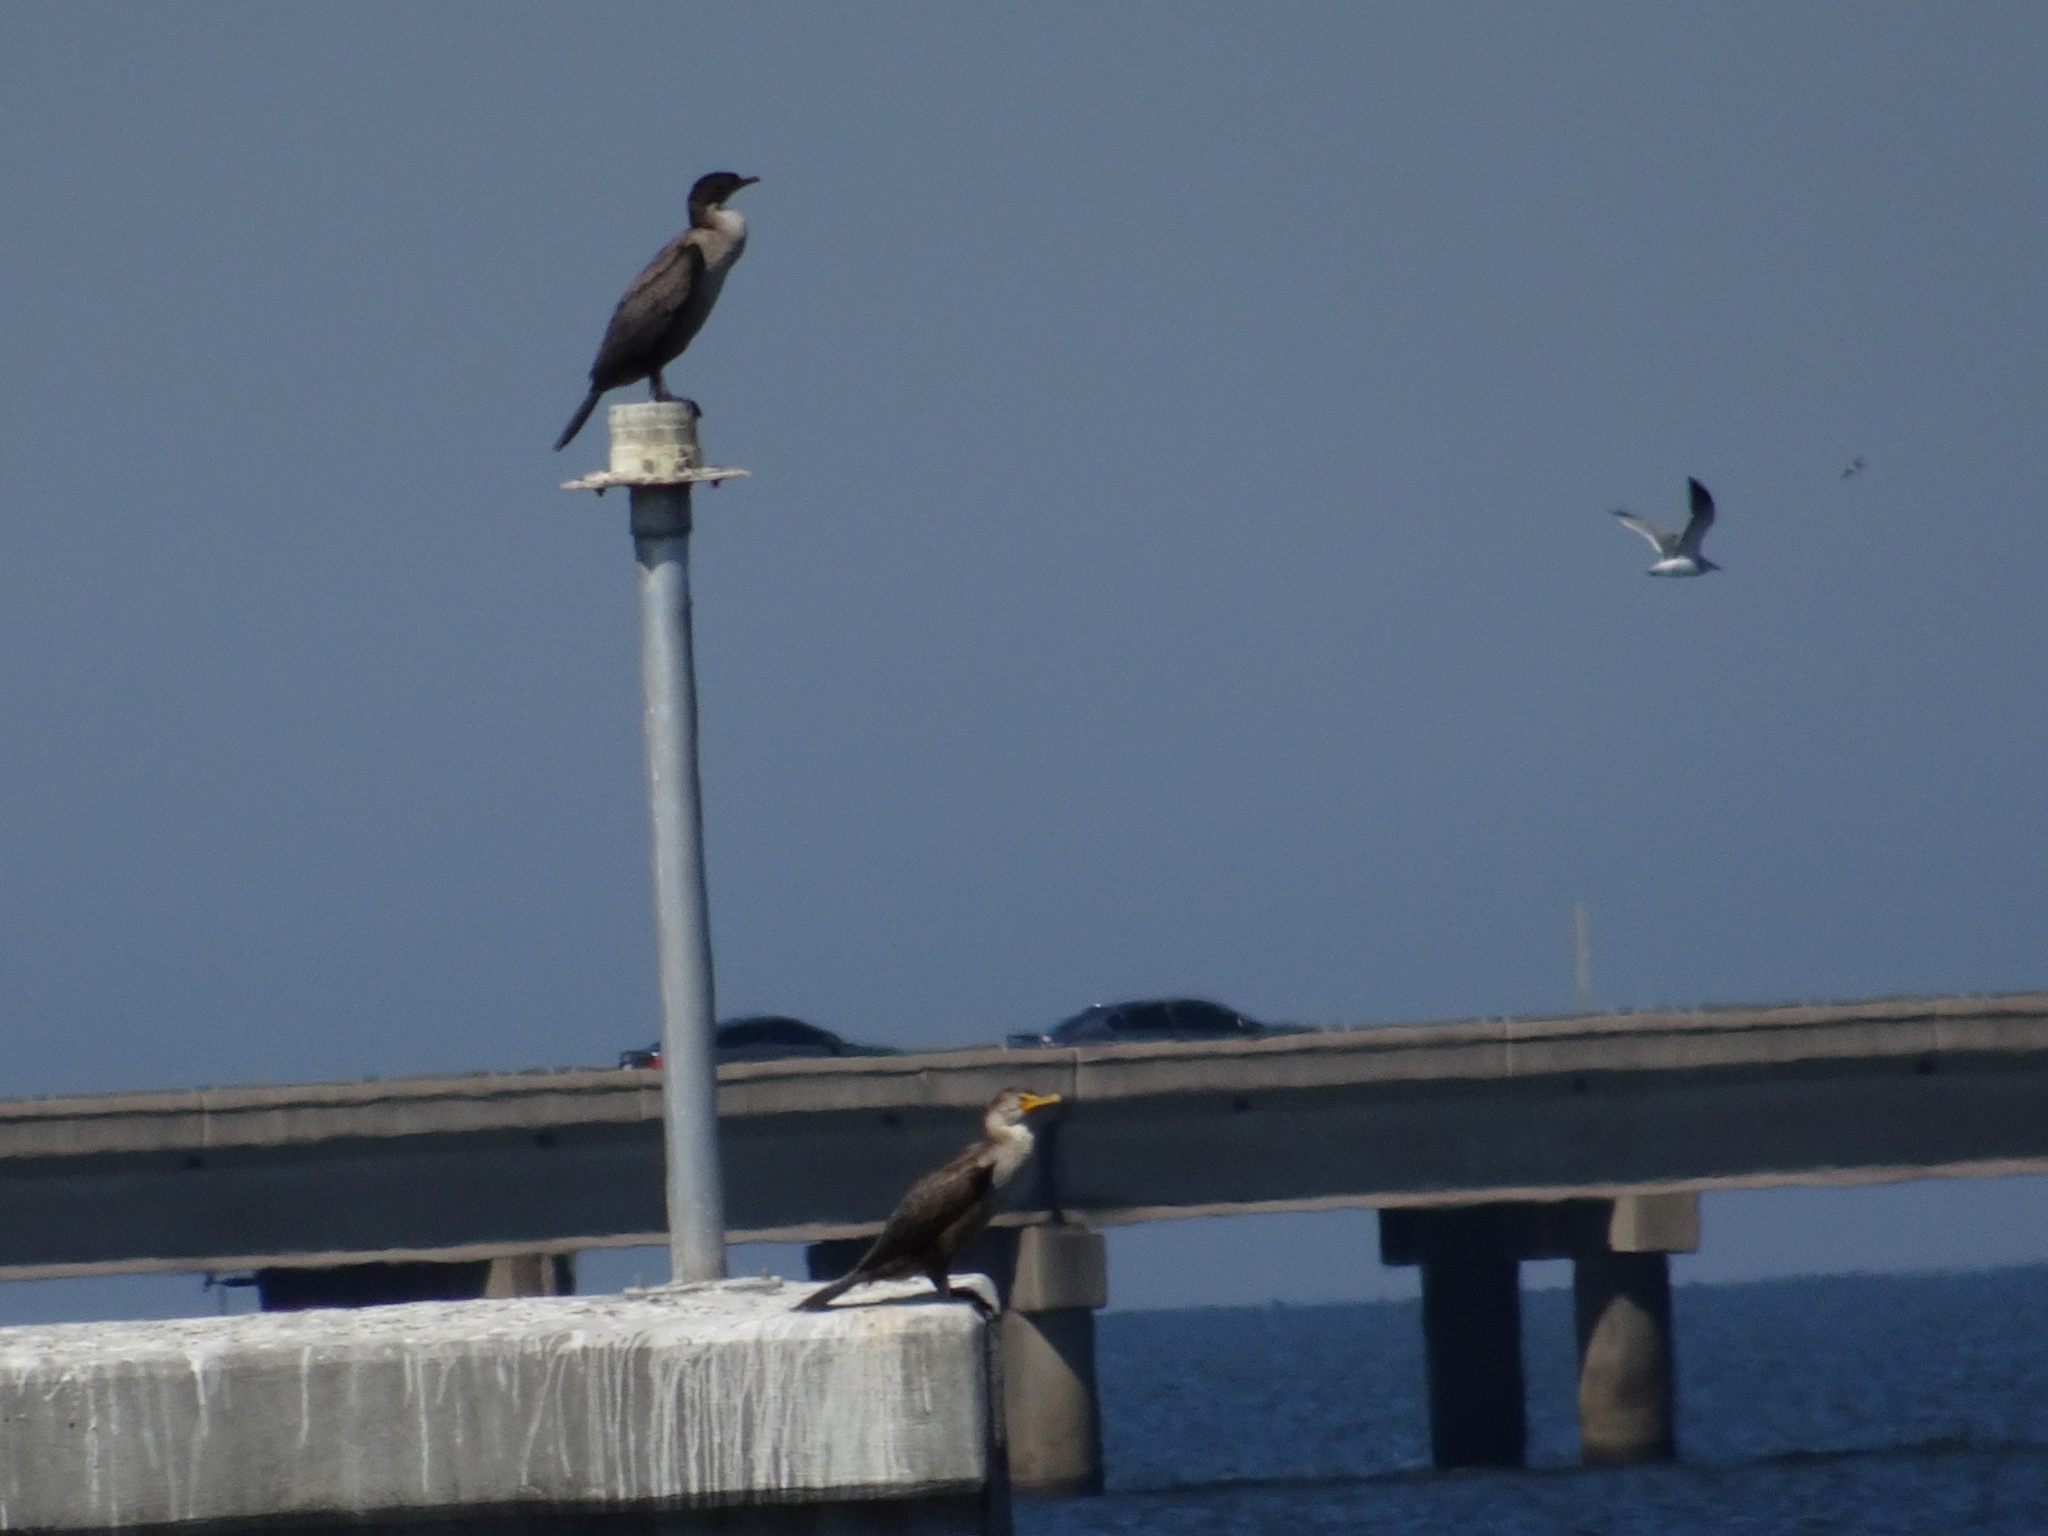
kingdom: Animalia
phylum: Chordata
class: Aves
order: Suliformes
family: Phalacrocoracidae
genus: Phalacrocorax
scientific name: Phalacrocorax auritus
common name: Double-crested cormorant
